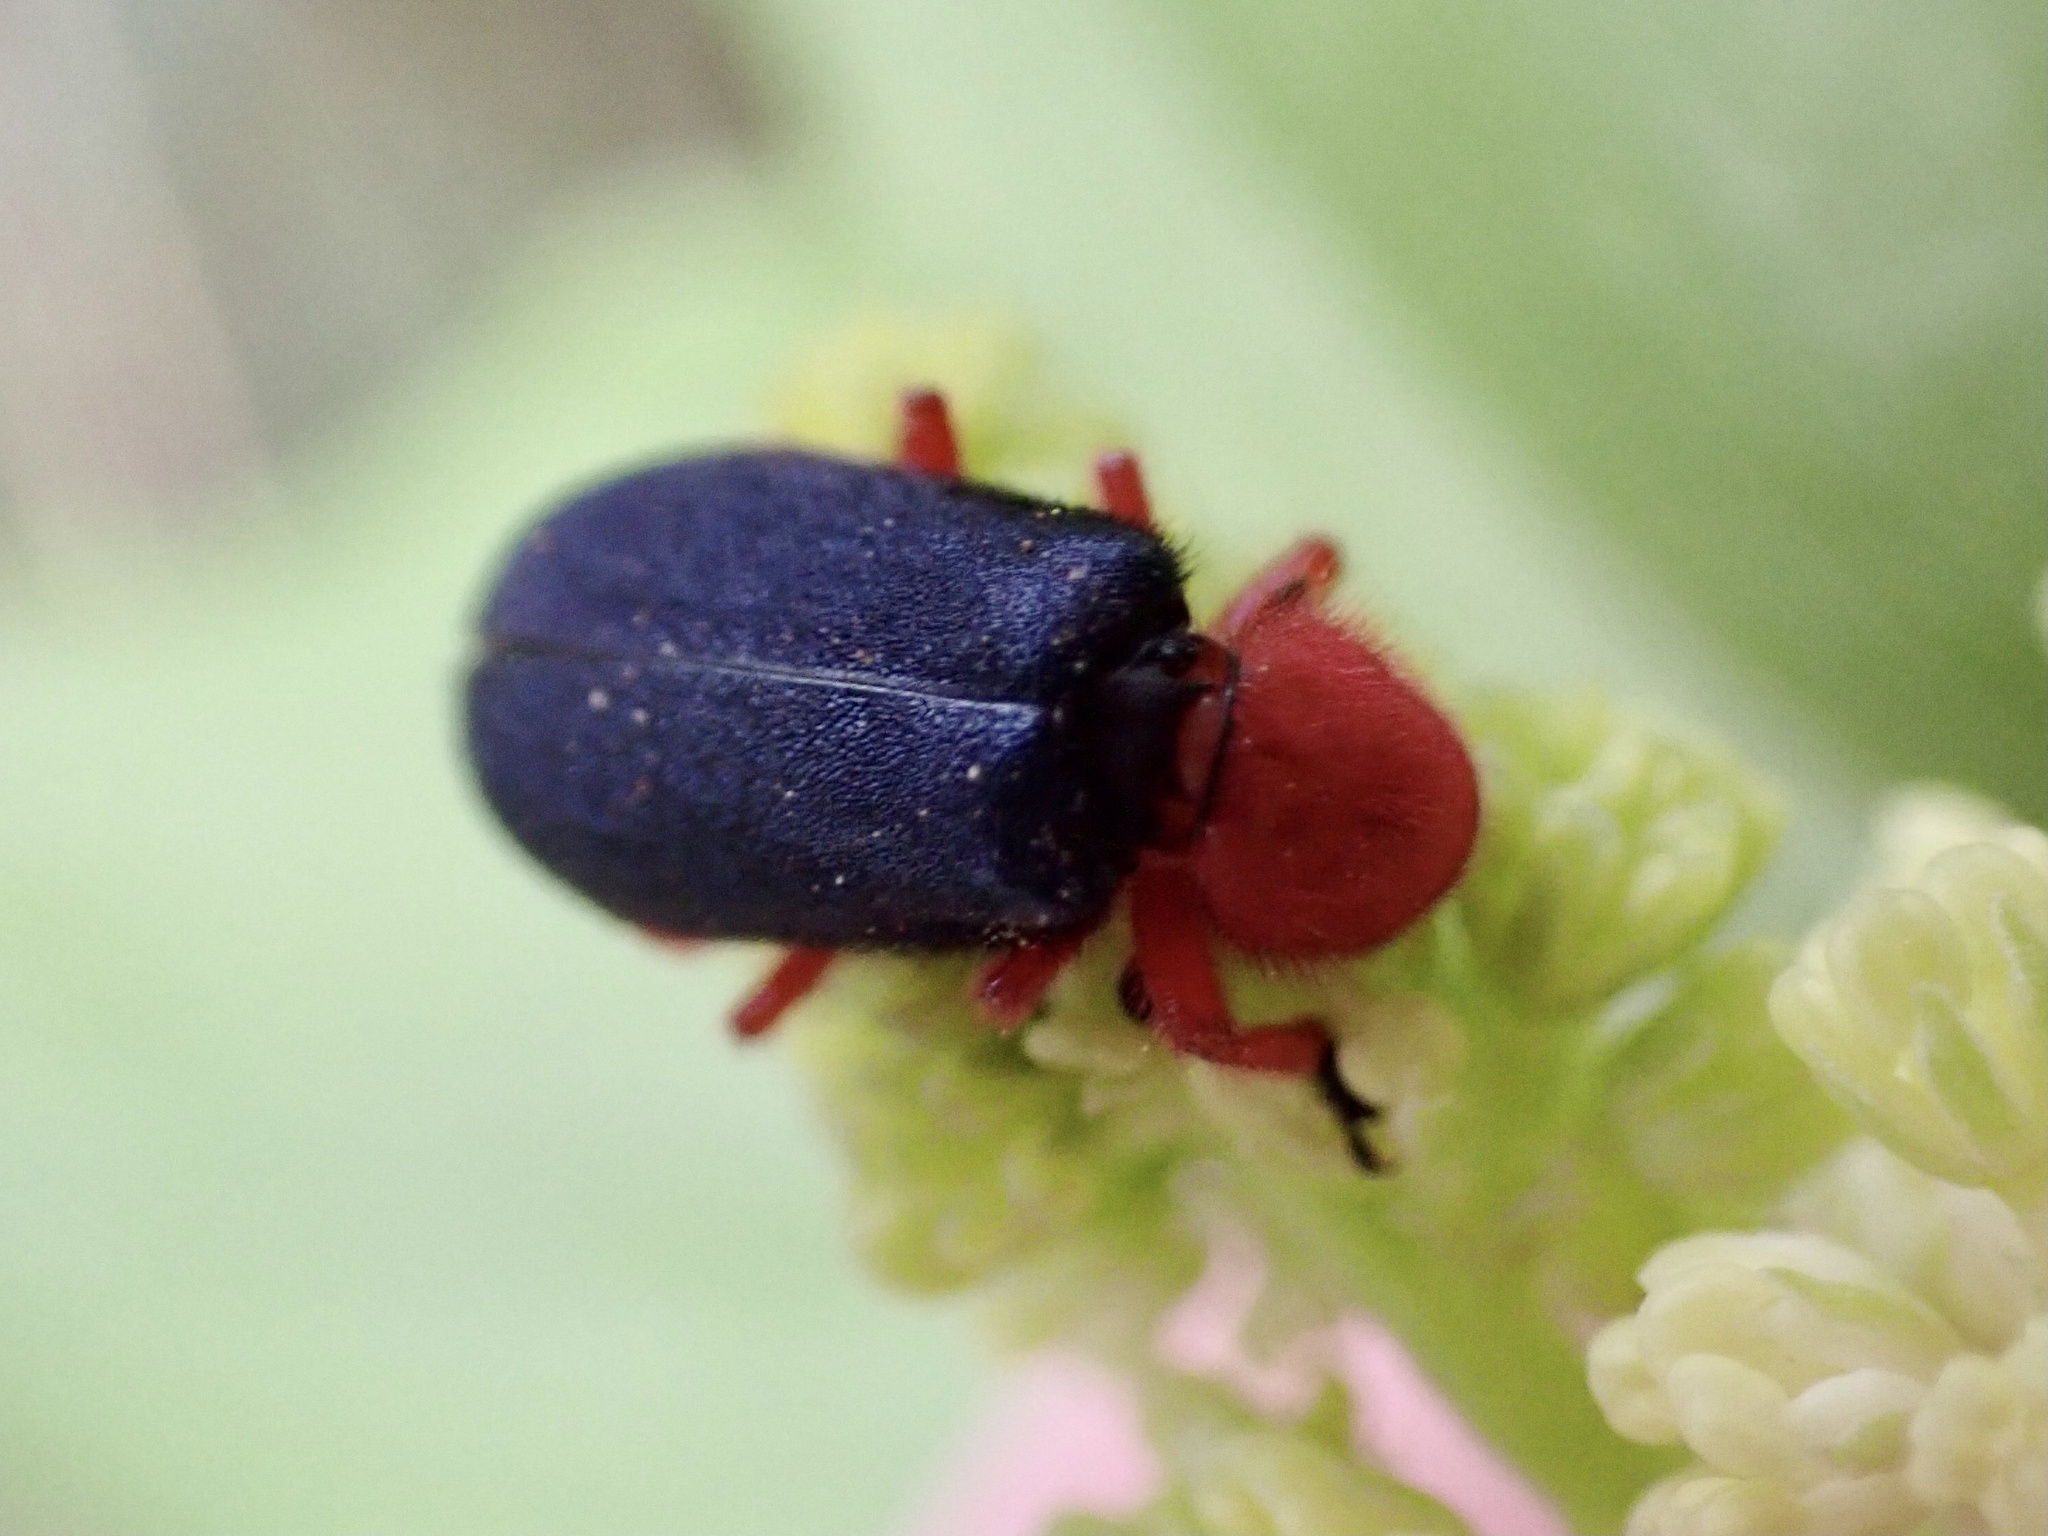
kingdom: Animalia
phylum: Arthropoda
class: Insecta
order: Coleoptera
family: Cleridae
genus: Chariessa
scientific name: Chariessa
